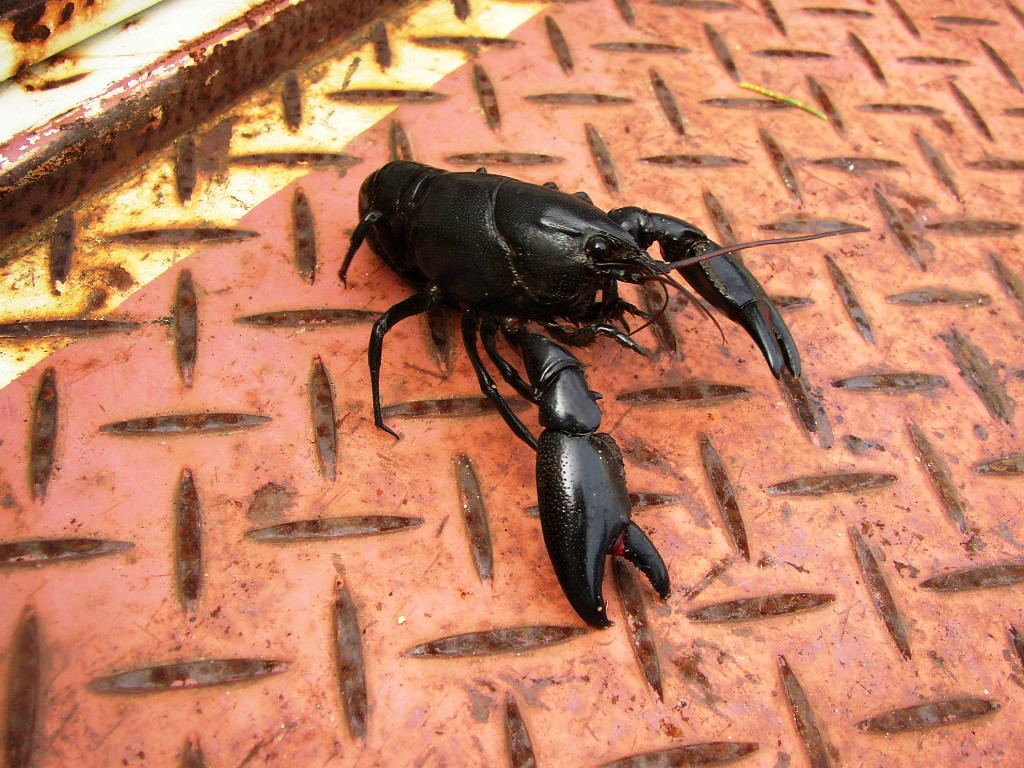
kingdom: Animalia
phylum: Arthropoda
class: Malacostraca
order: Decapoda
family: Parastacidae
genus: Cherax
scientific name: Cherax preissii
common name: Koonac
